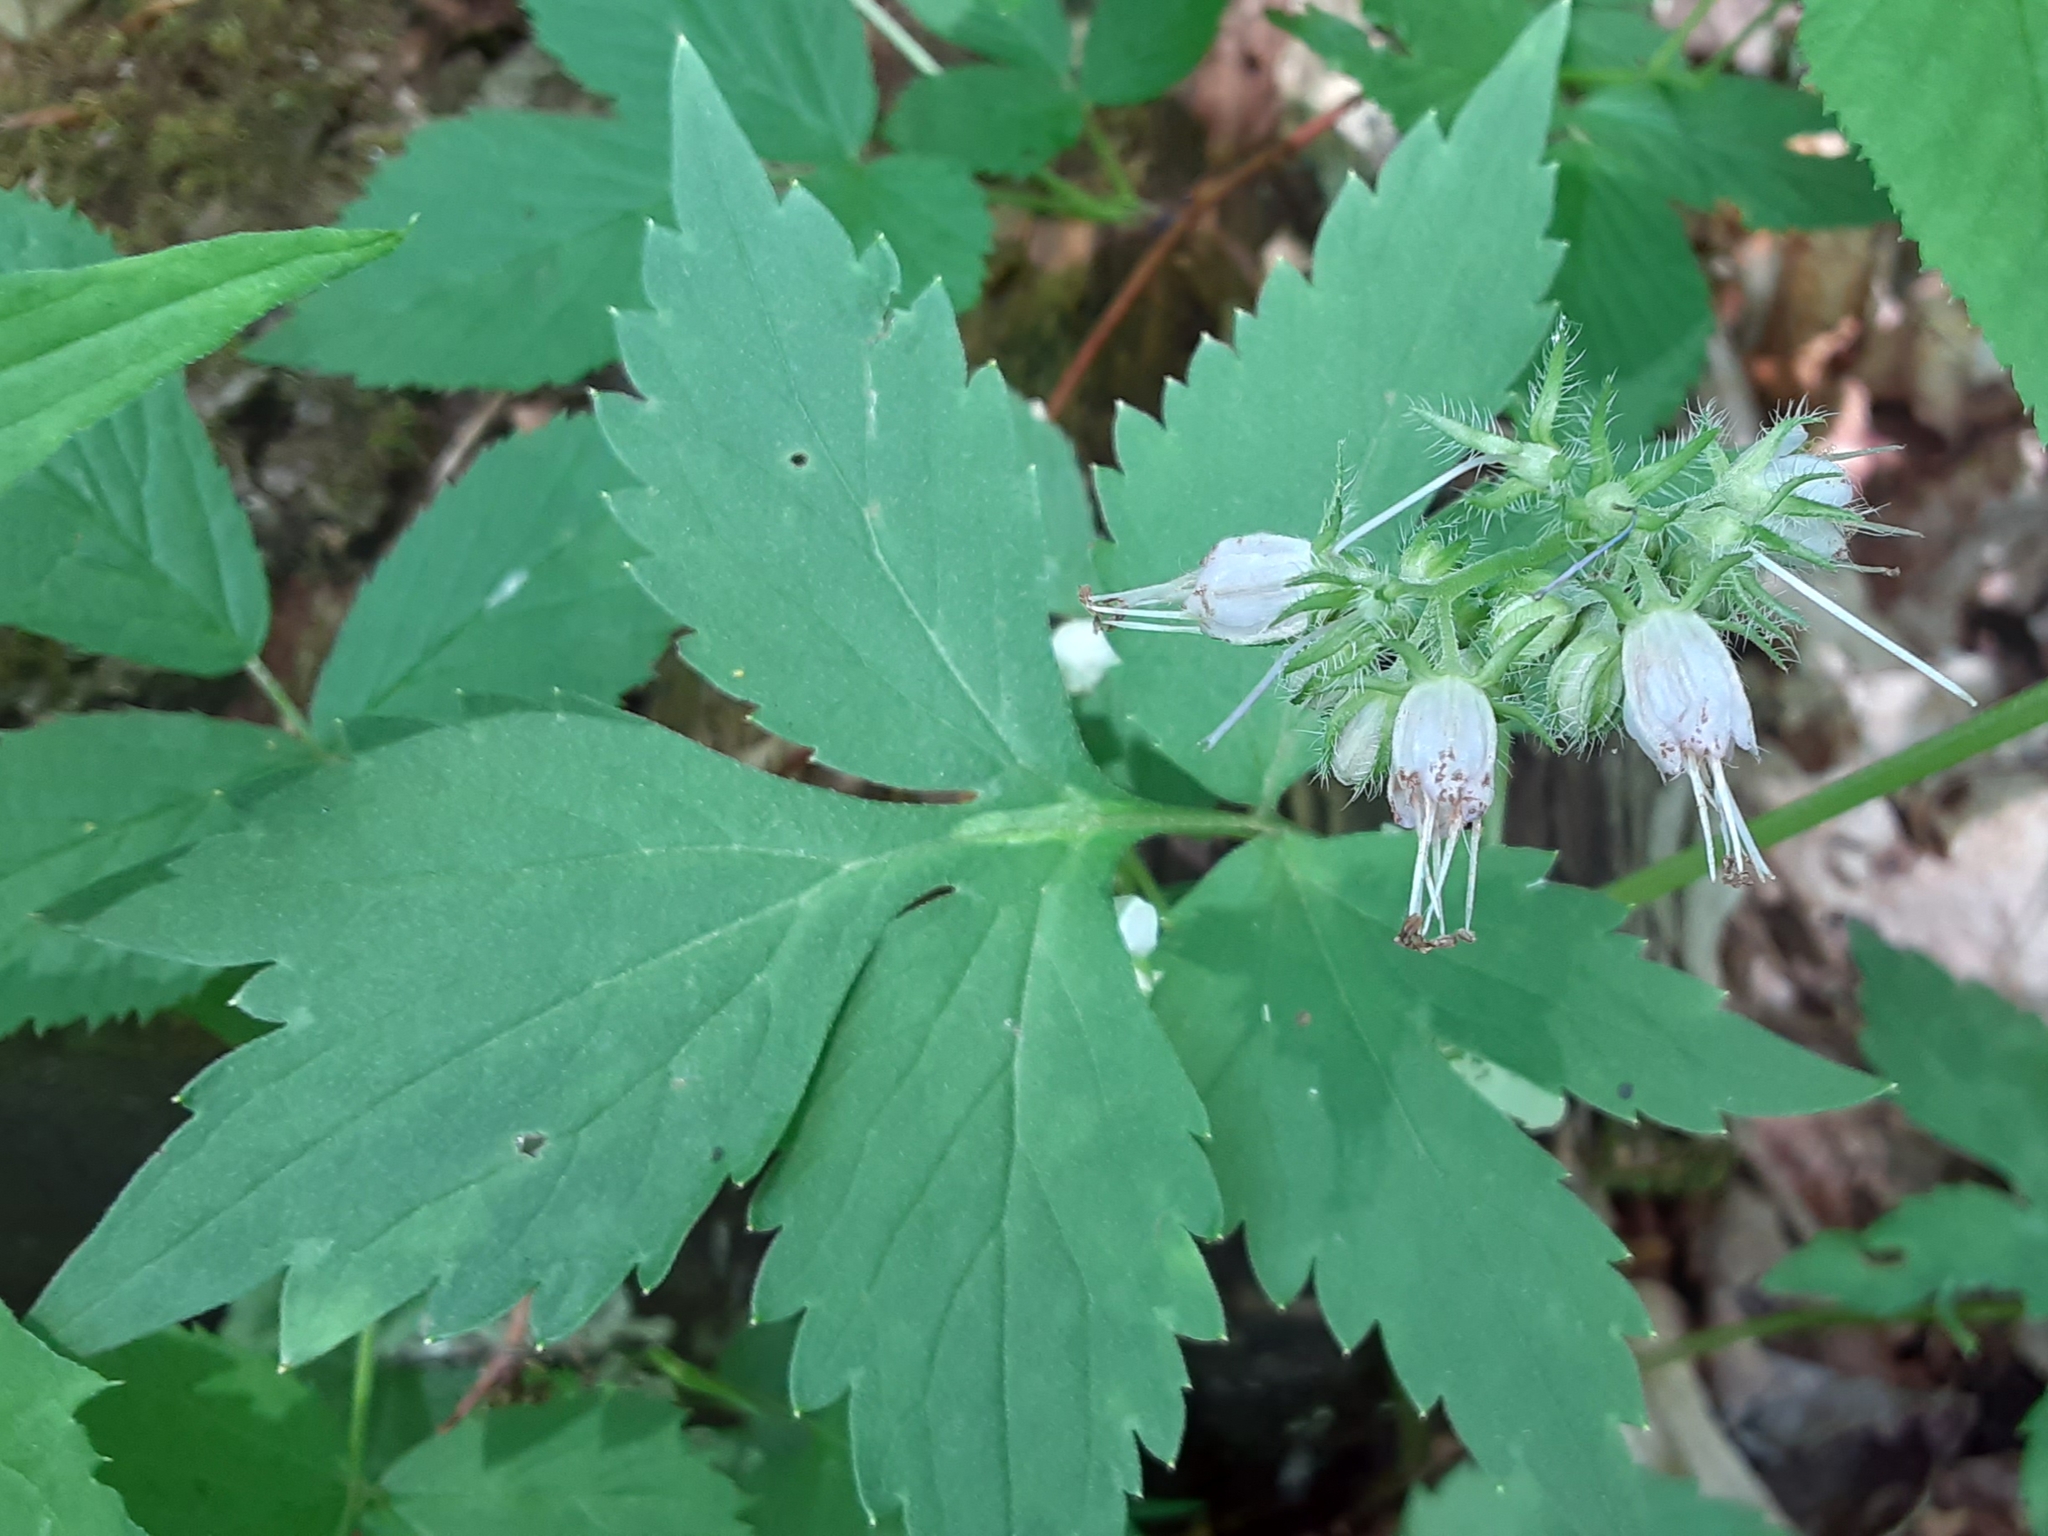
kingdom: Plantae
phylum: Tracheophyta
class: Magnoliopsida
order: Boraginales
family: Hydrophyllaceae
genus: Hydrophyllum
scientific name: Hydrophyllum virginianum
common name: Virginia waterleaf
